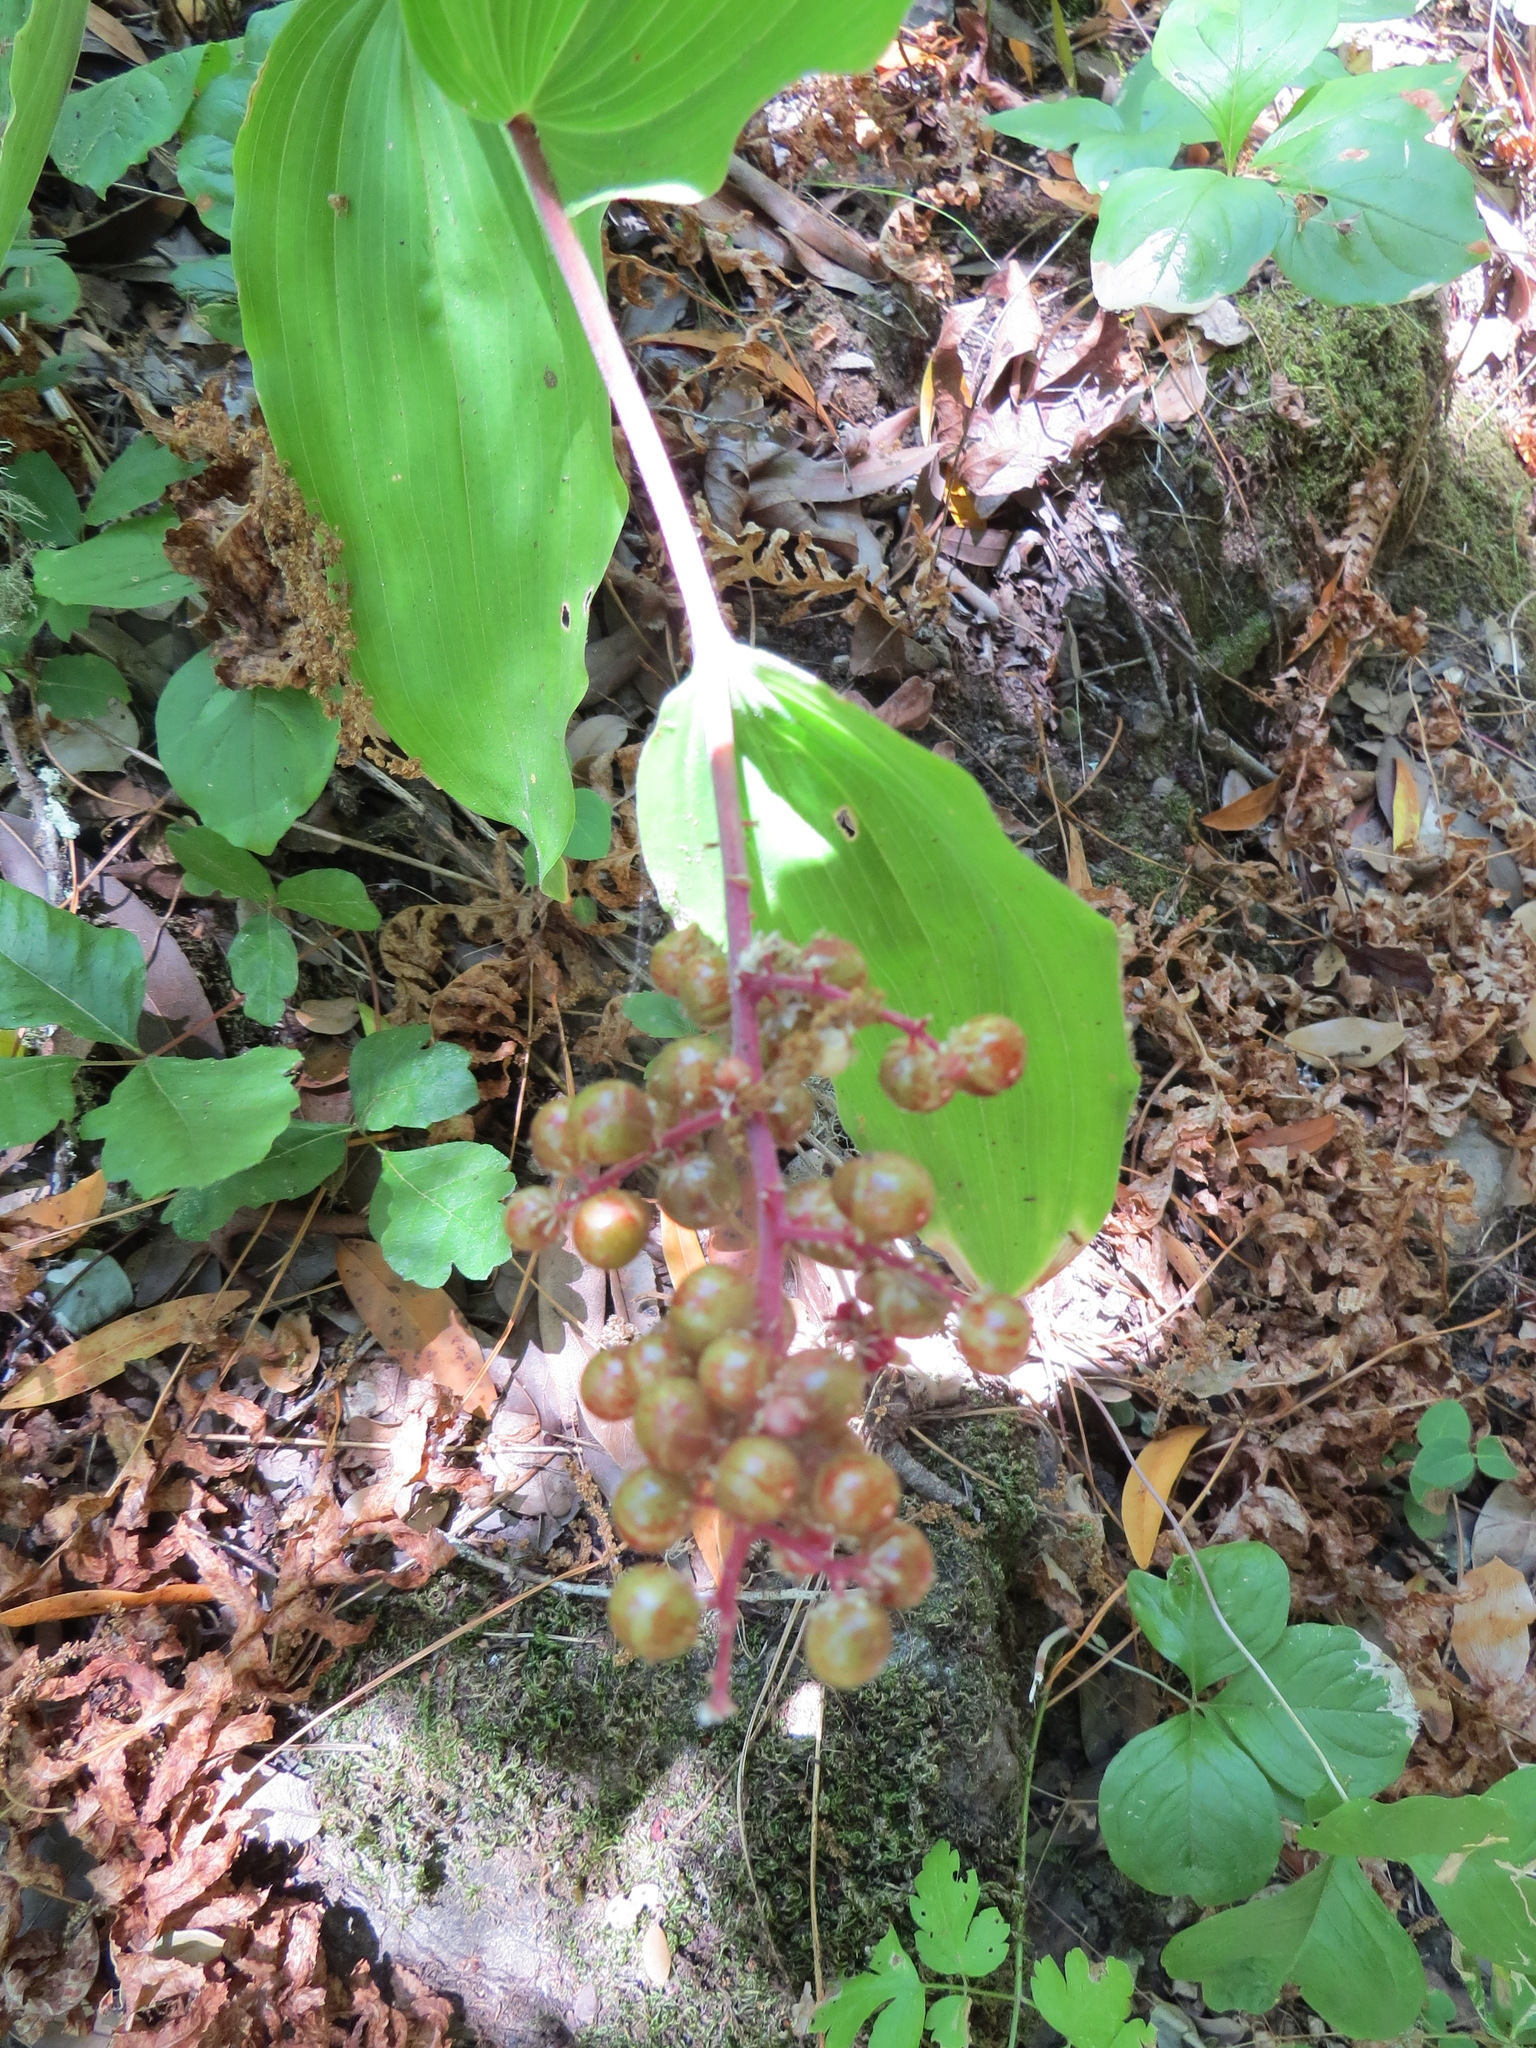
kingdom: Plantae
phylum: Tracheophyta
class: Liliopsida
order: Asparagales
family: Asparagaceae
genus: Maianthemum
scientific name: Maianthemum racemosum
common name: False spikenard
